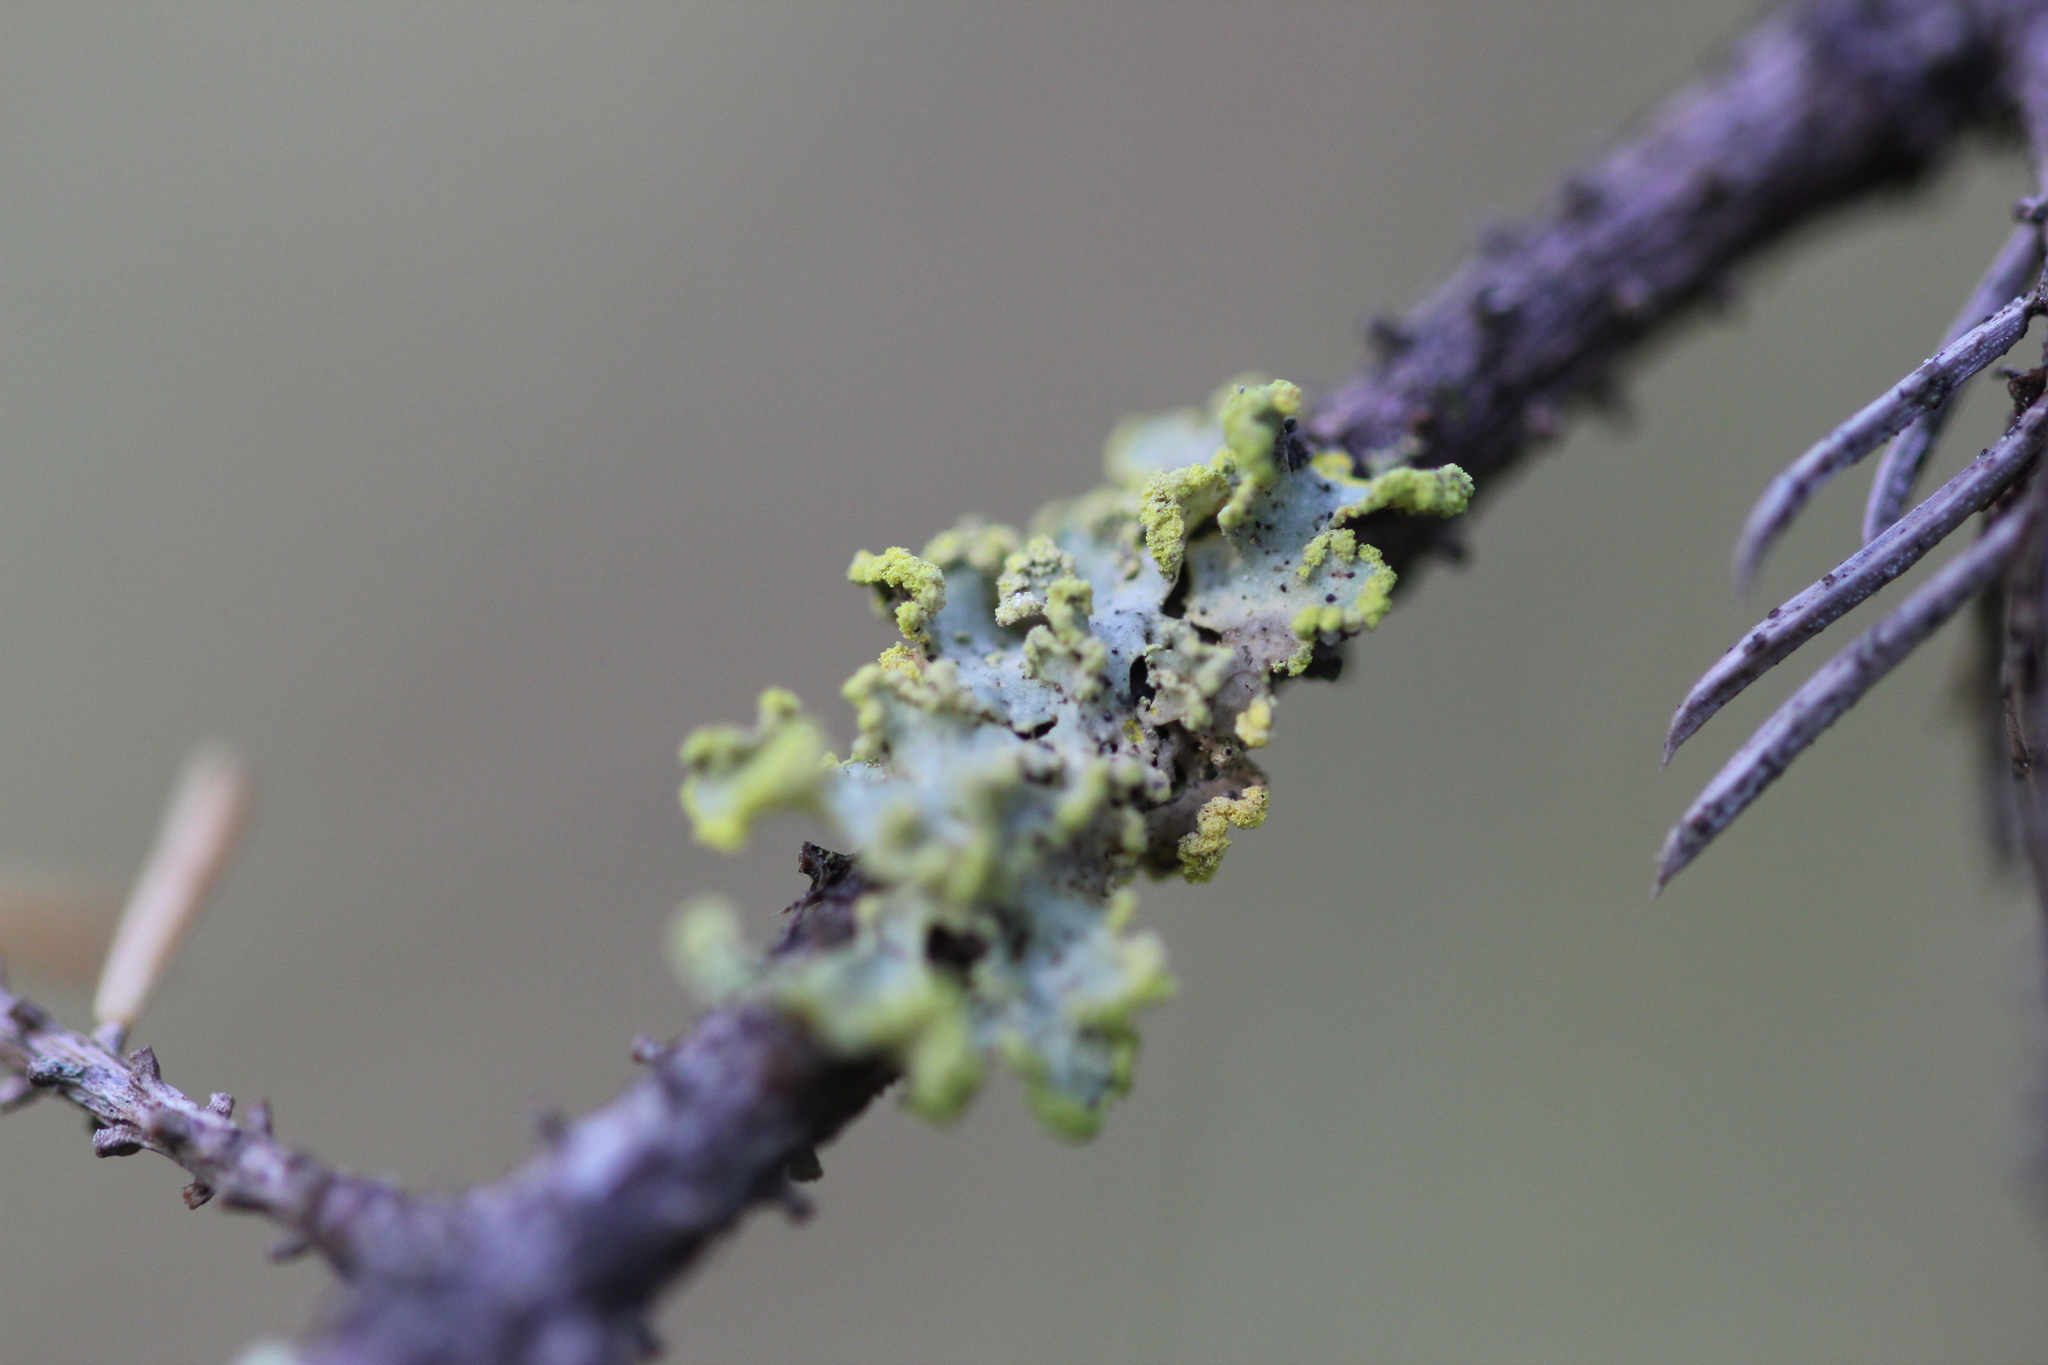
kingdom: Fungi
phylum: Ascomycota
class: Lecanoromycetes
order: Lecanorales
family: Parmeliaceae
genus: Vulpicida
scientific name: Vulpicida pinastri
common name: Powdered sunshine lichen
